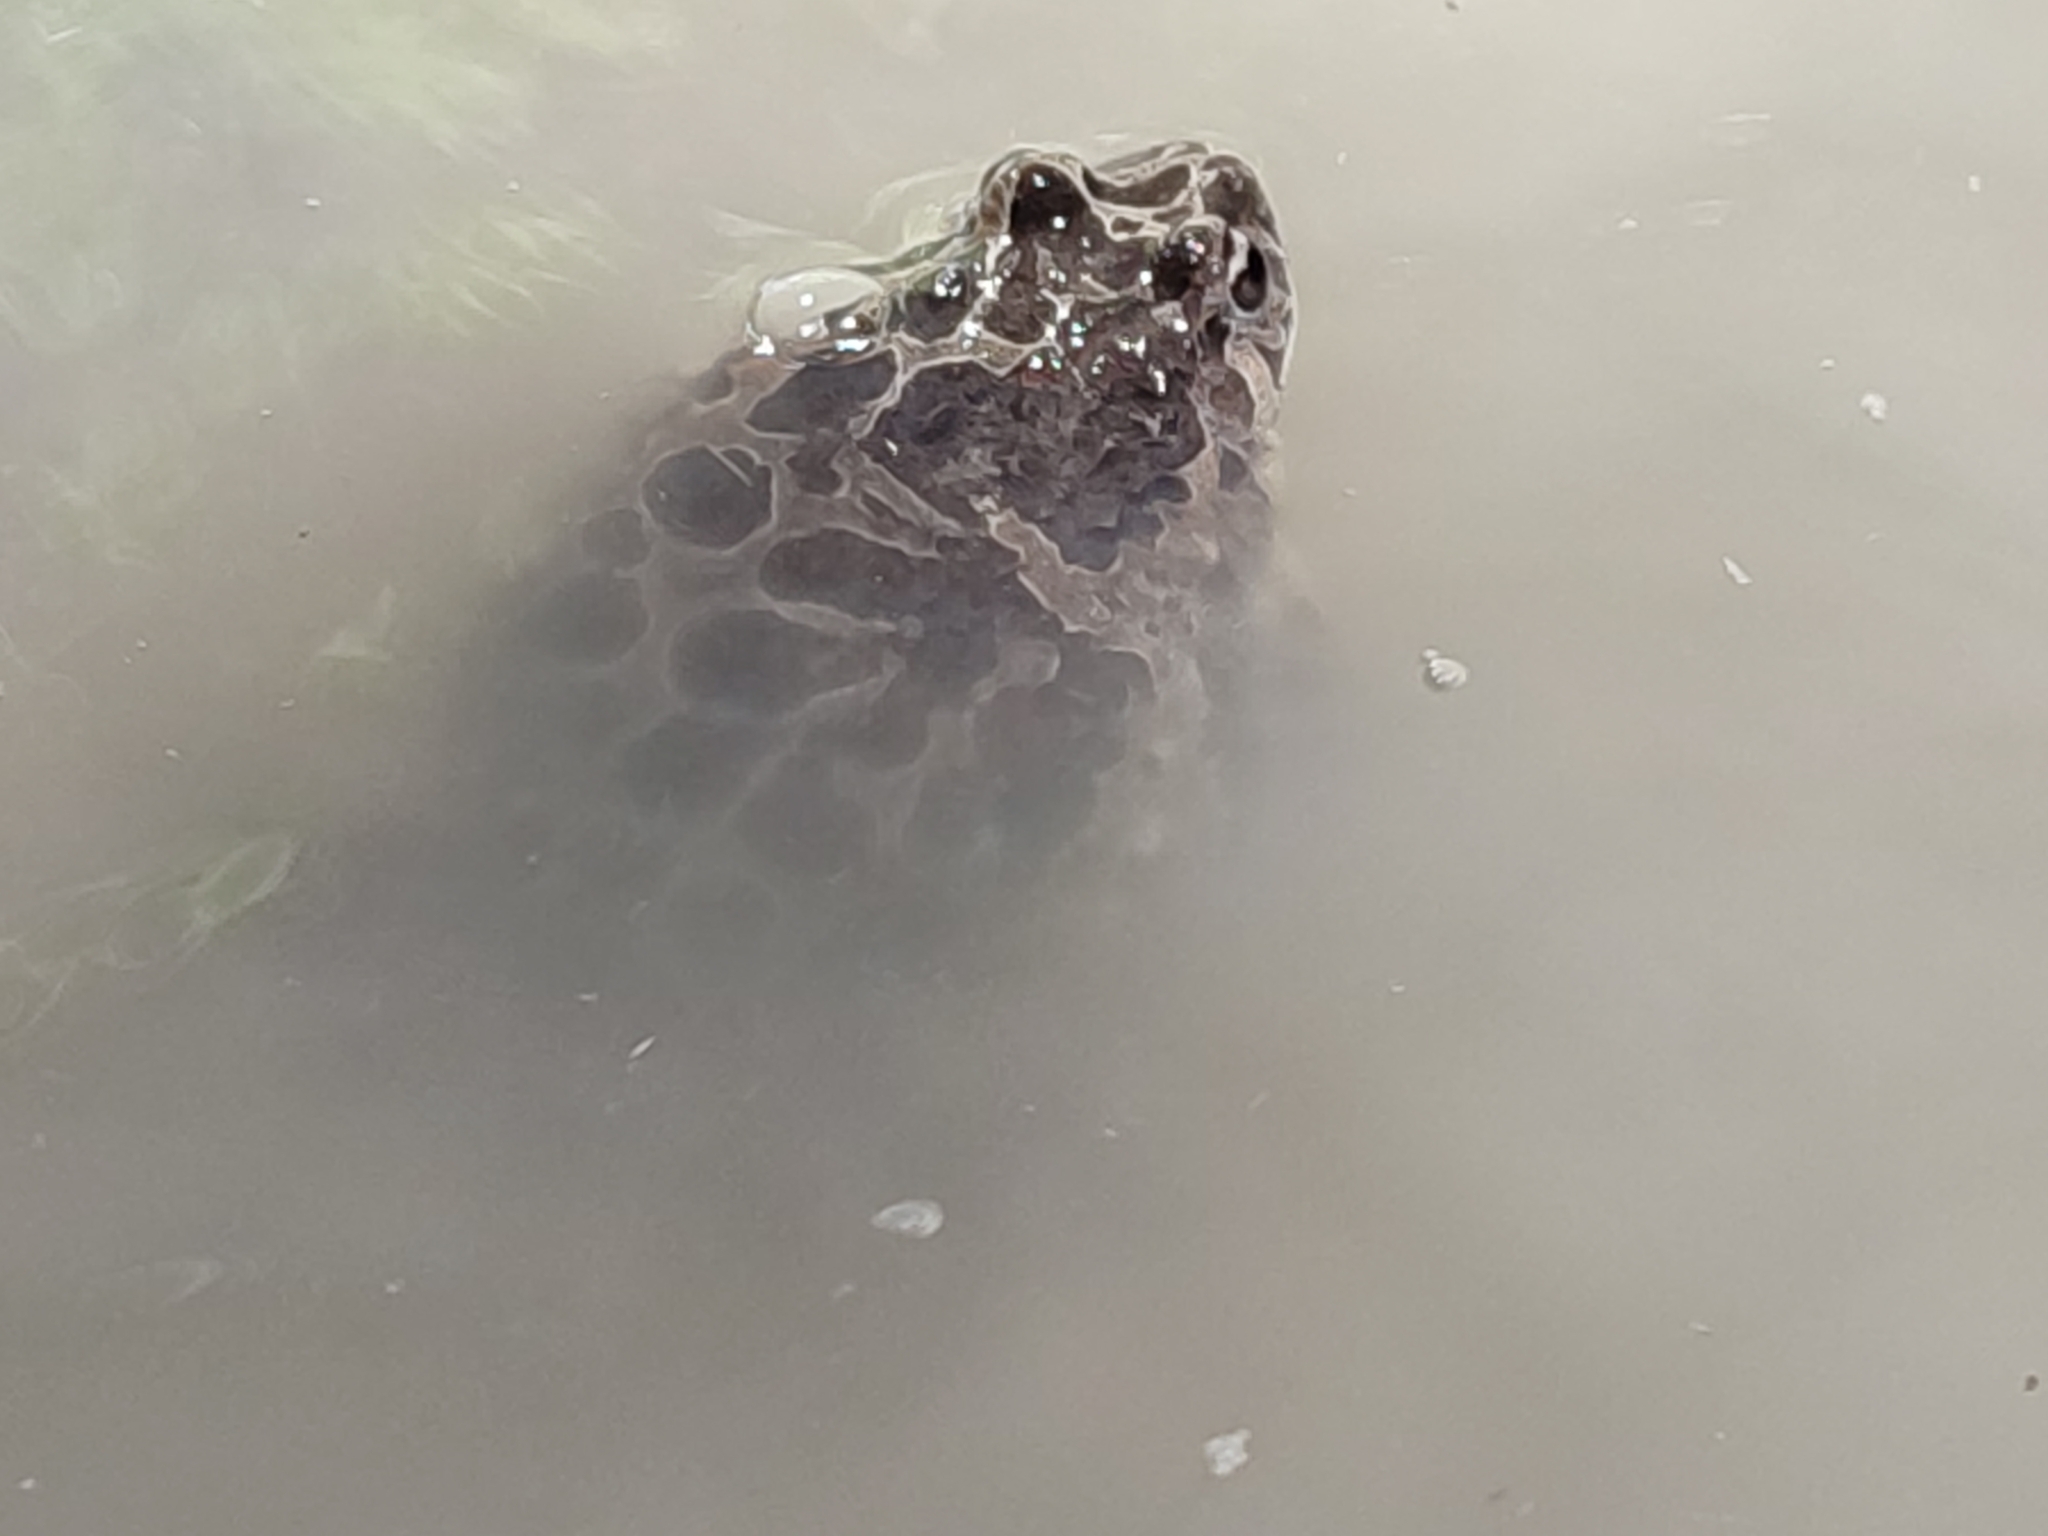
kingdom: Animalia
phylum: Chordata
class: Amphibia
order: Anura
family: Alytidae
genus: Discoglossus
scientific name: Discoglossus pictus
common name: Painted frog
